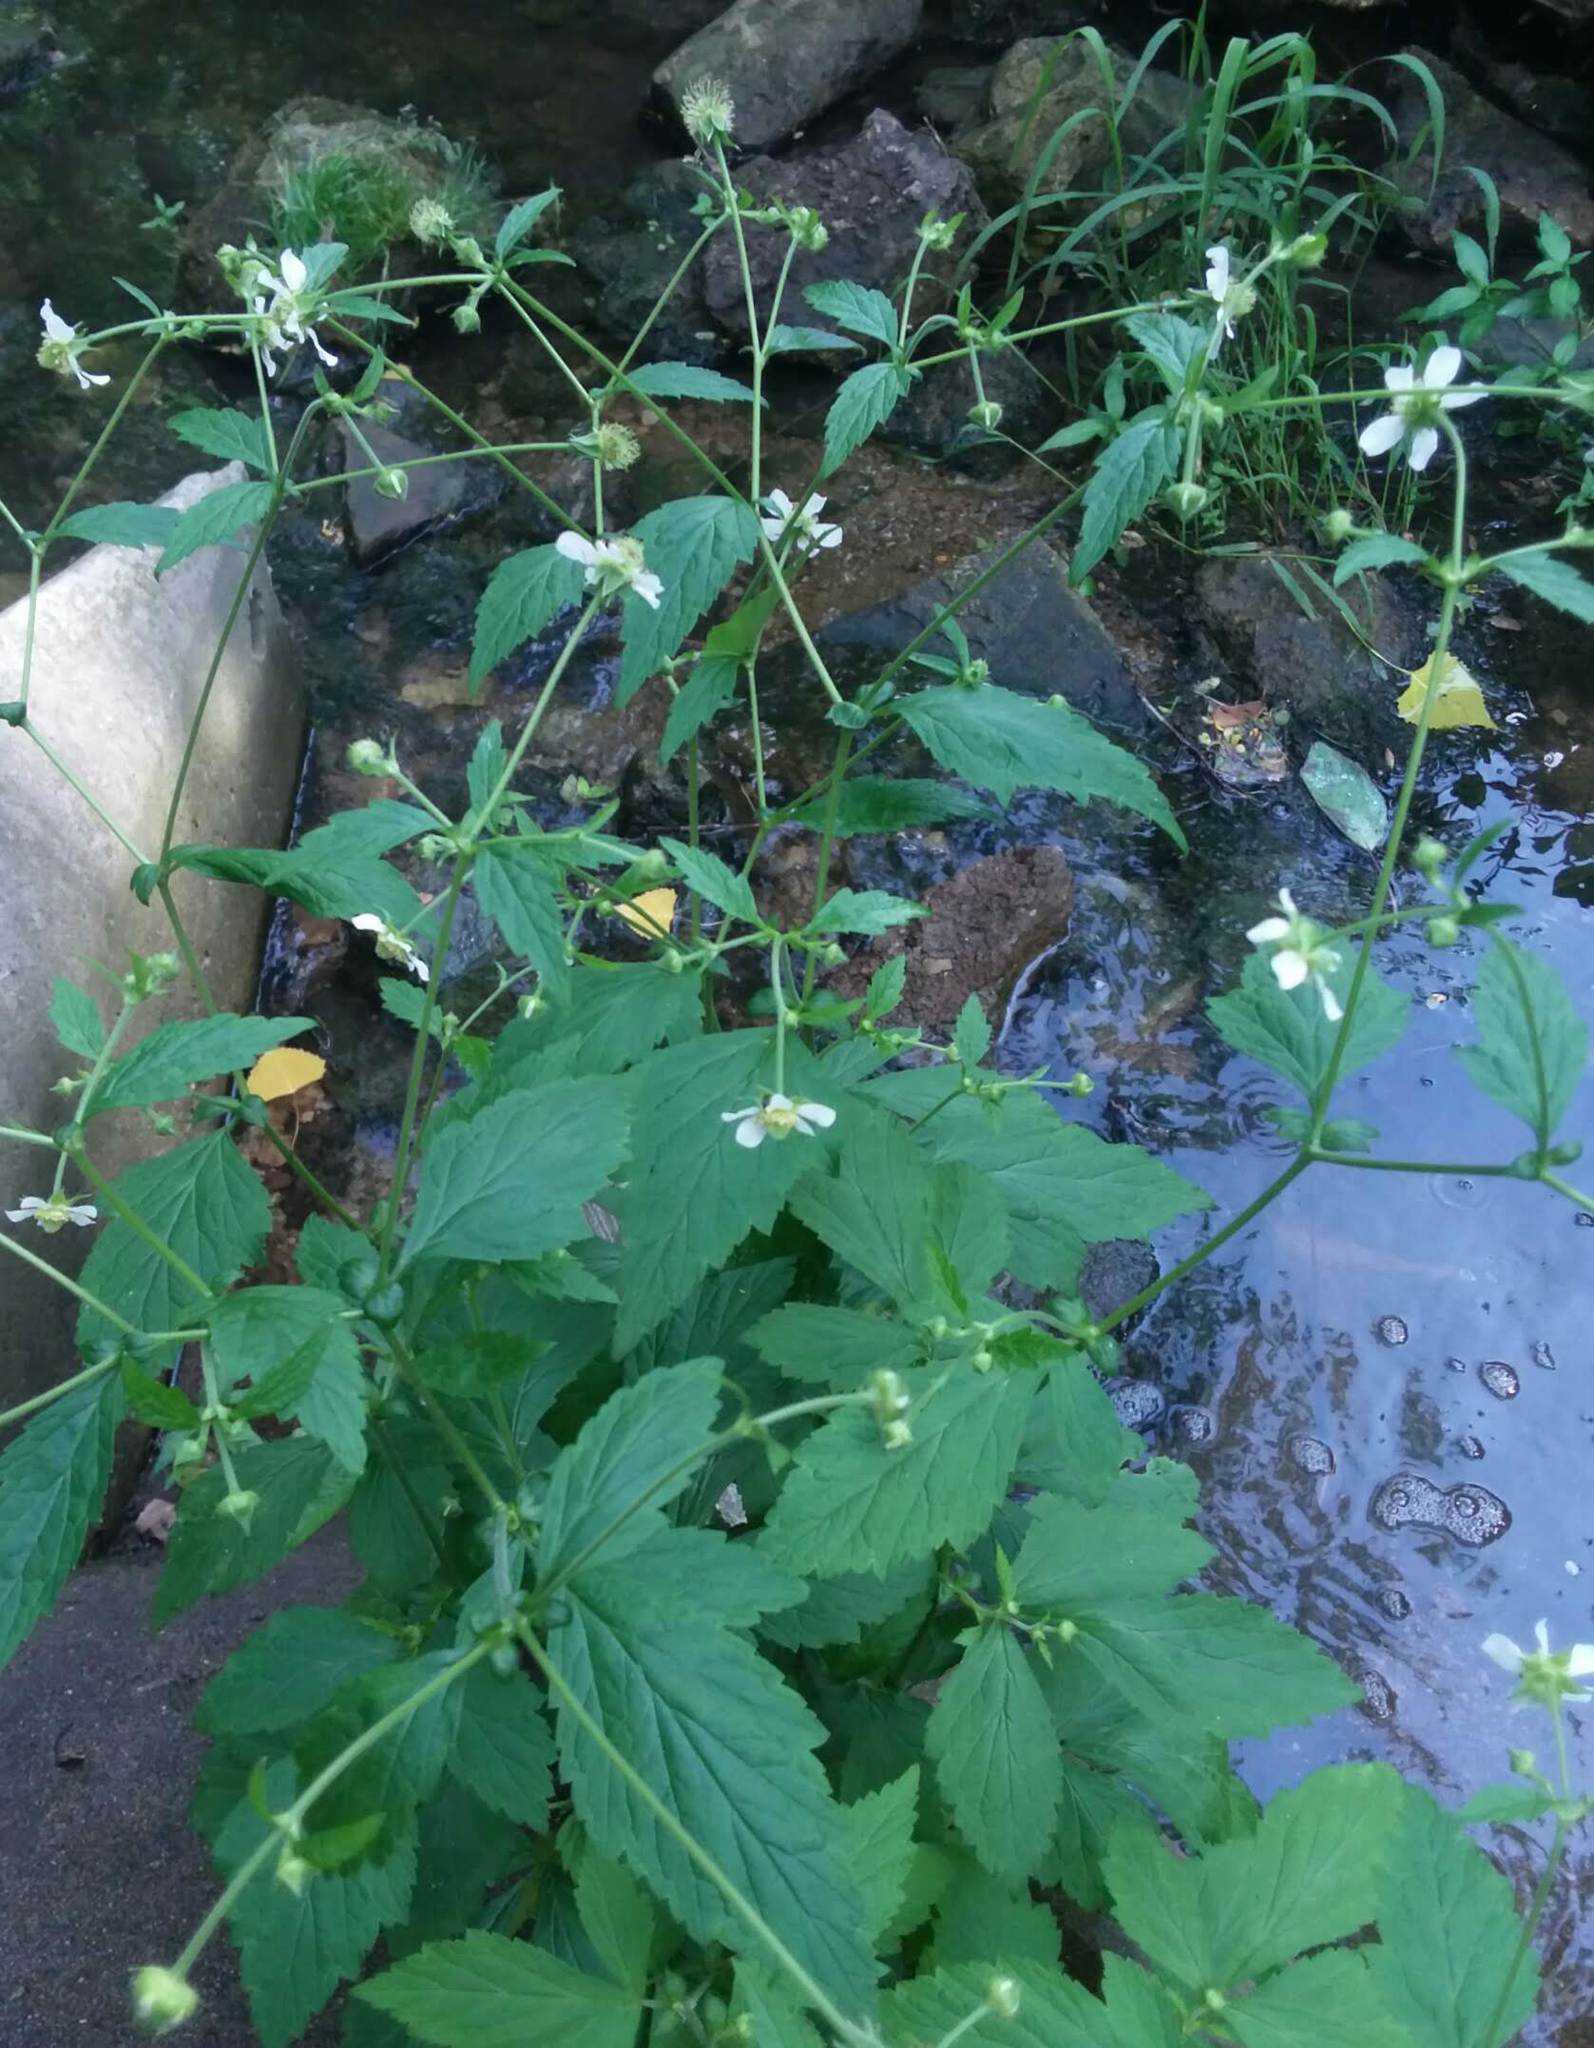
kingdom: Plantae
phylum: Tracheophyta
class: Magnoliopsida
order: Rosales
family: Rosaceae
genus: Geum
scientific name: Geum canadense
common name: White avens
